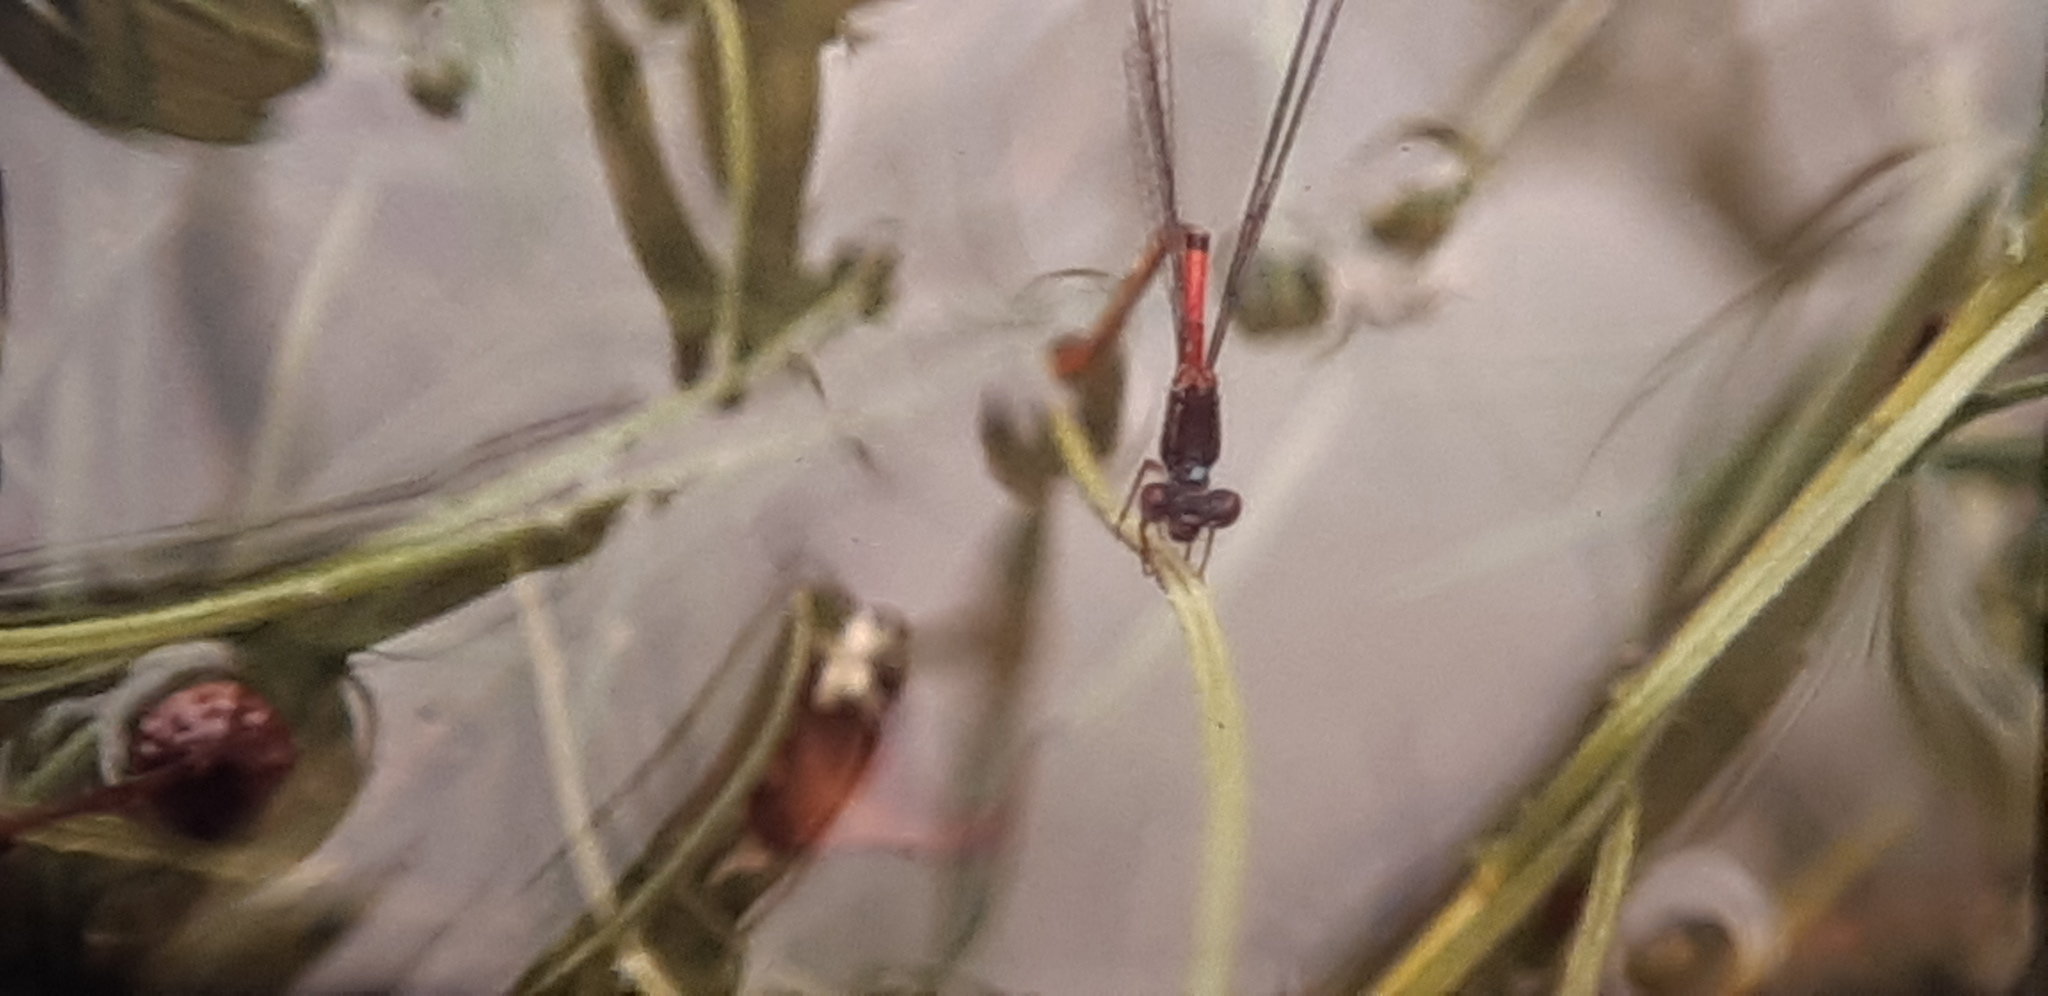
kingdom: Animalia
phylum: Arthropoda
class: Insecta
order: Odonata
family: Coenagrionidae
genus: Ceriagrion
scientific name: Ceriagrion tenellum
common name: Small red damselfly
